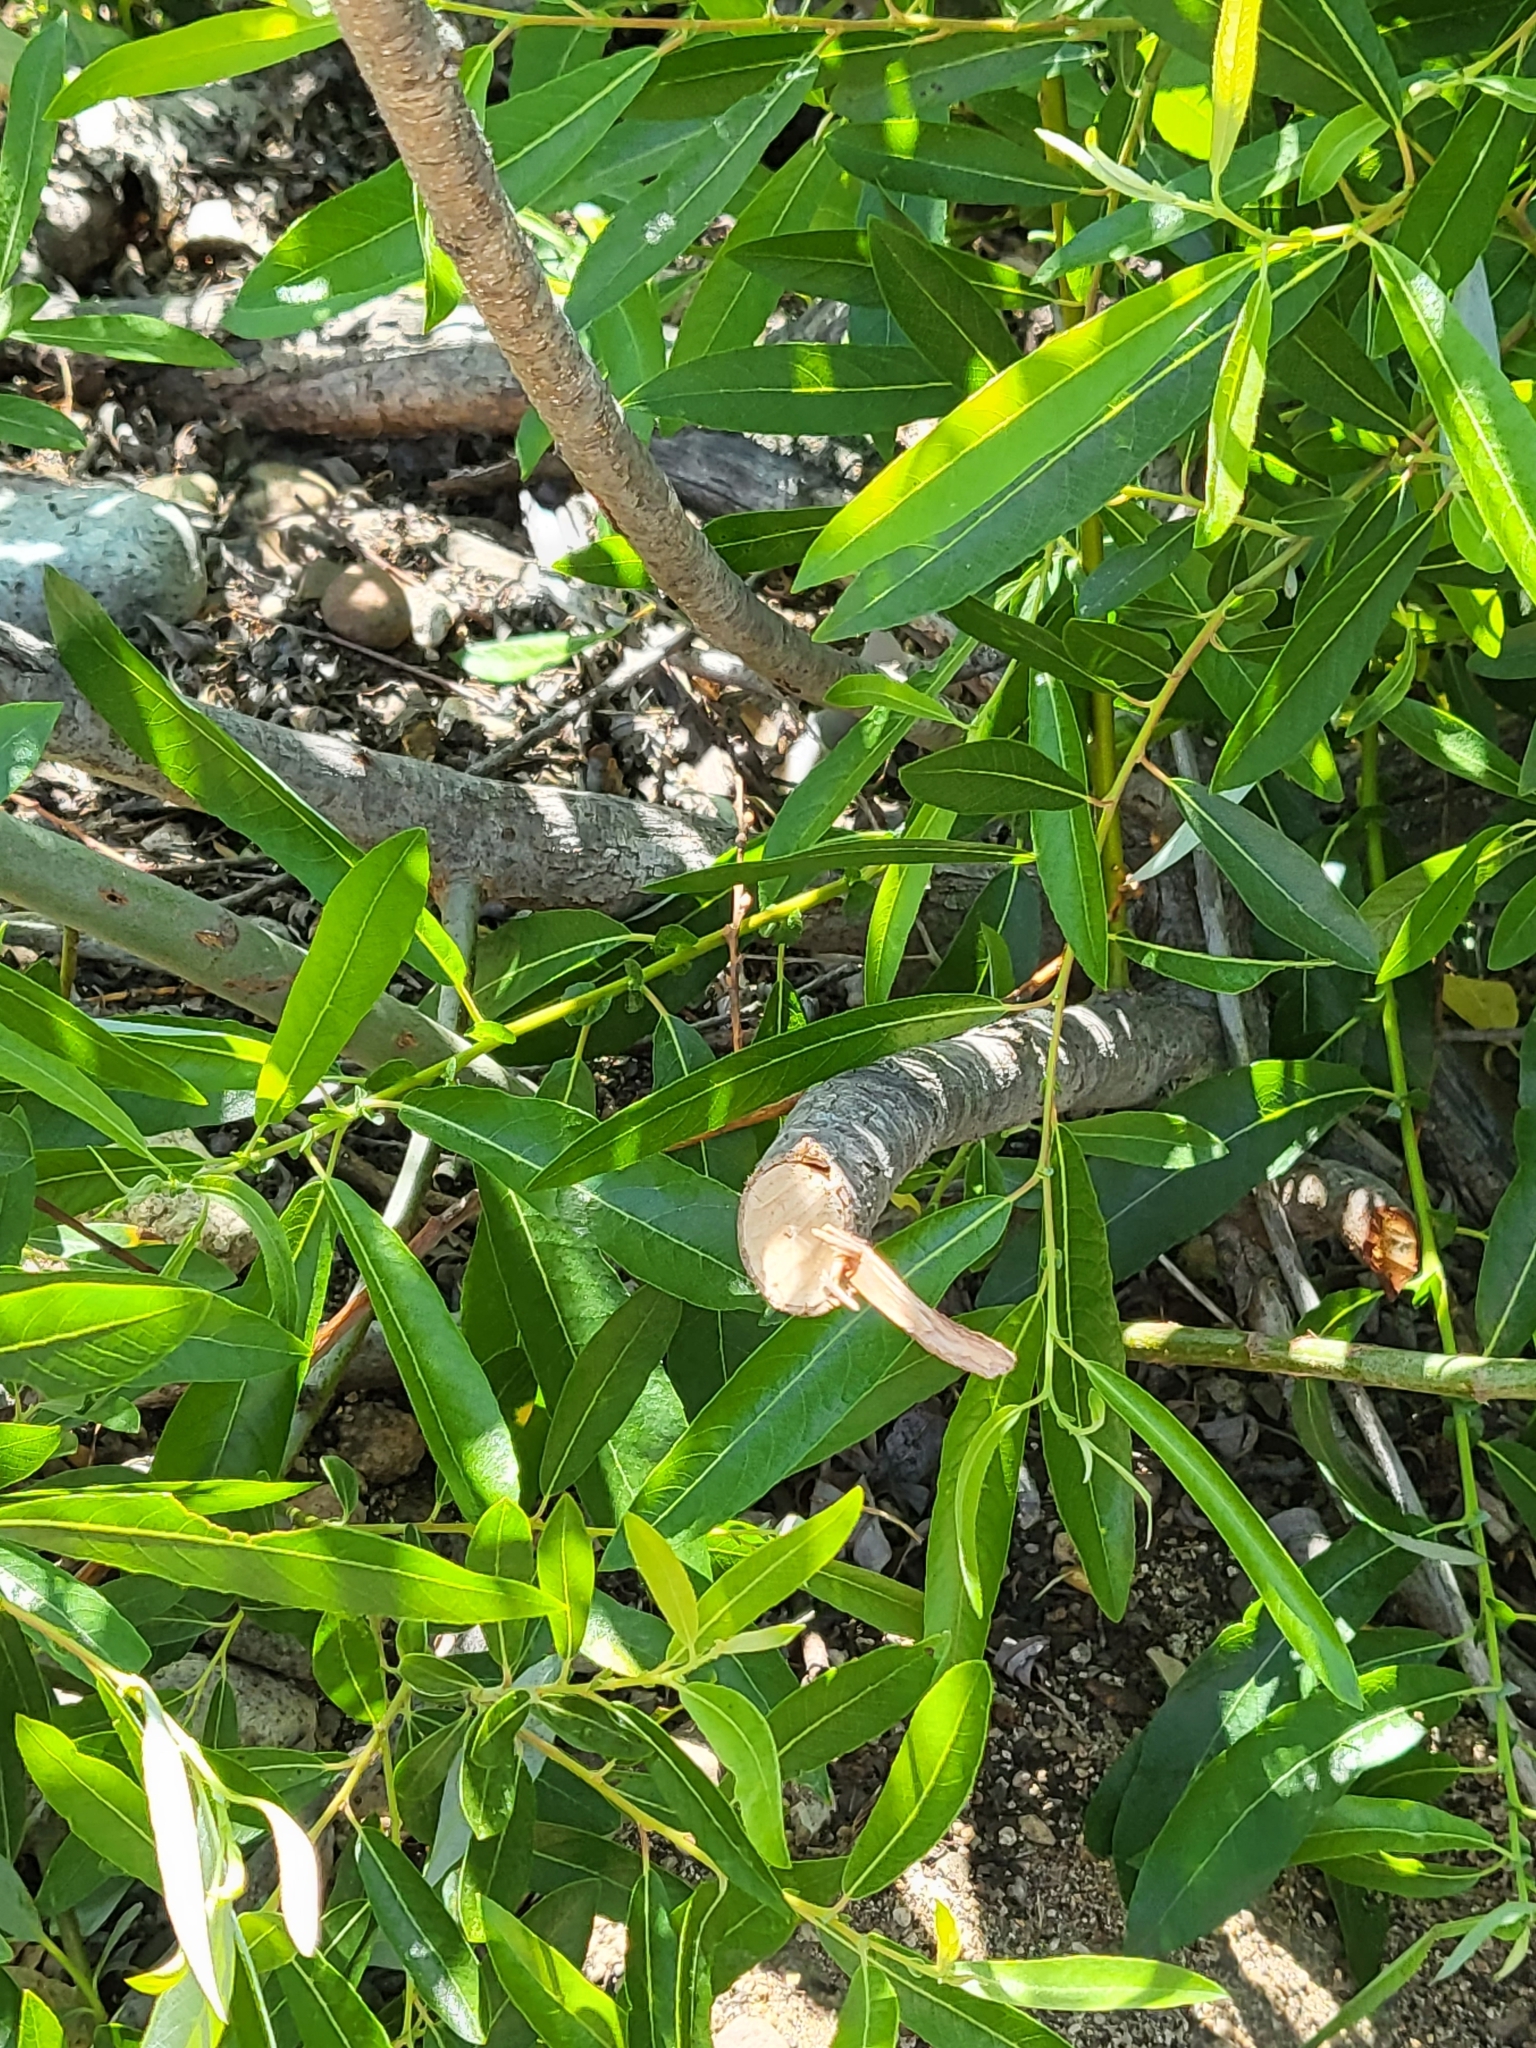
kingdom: Animalia
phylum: Chordata
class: Mammalia
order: Rodentia
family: Castoridae
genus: Castor
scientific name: Castor canadensis
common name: American beaver
